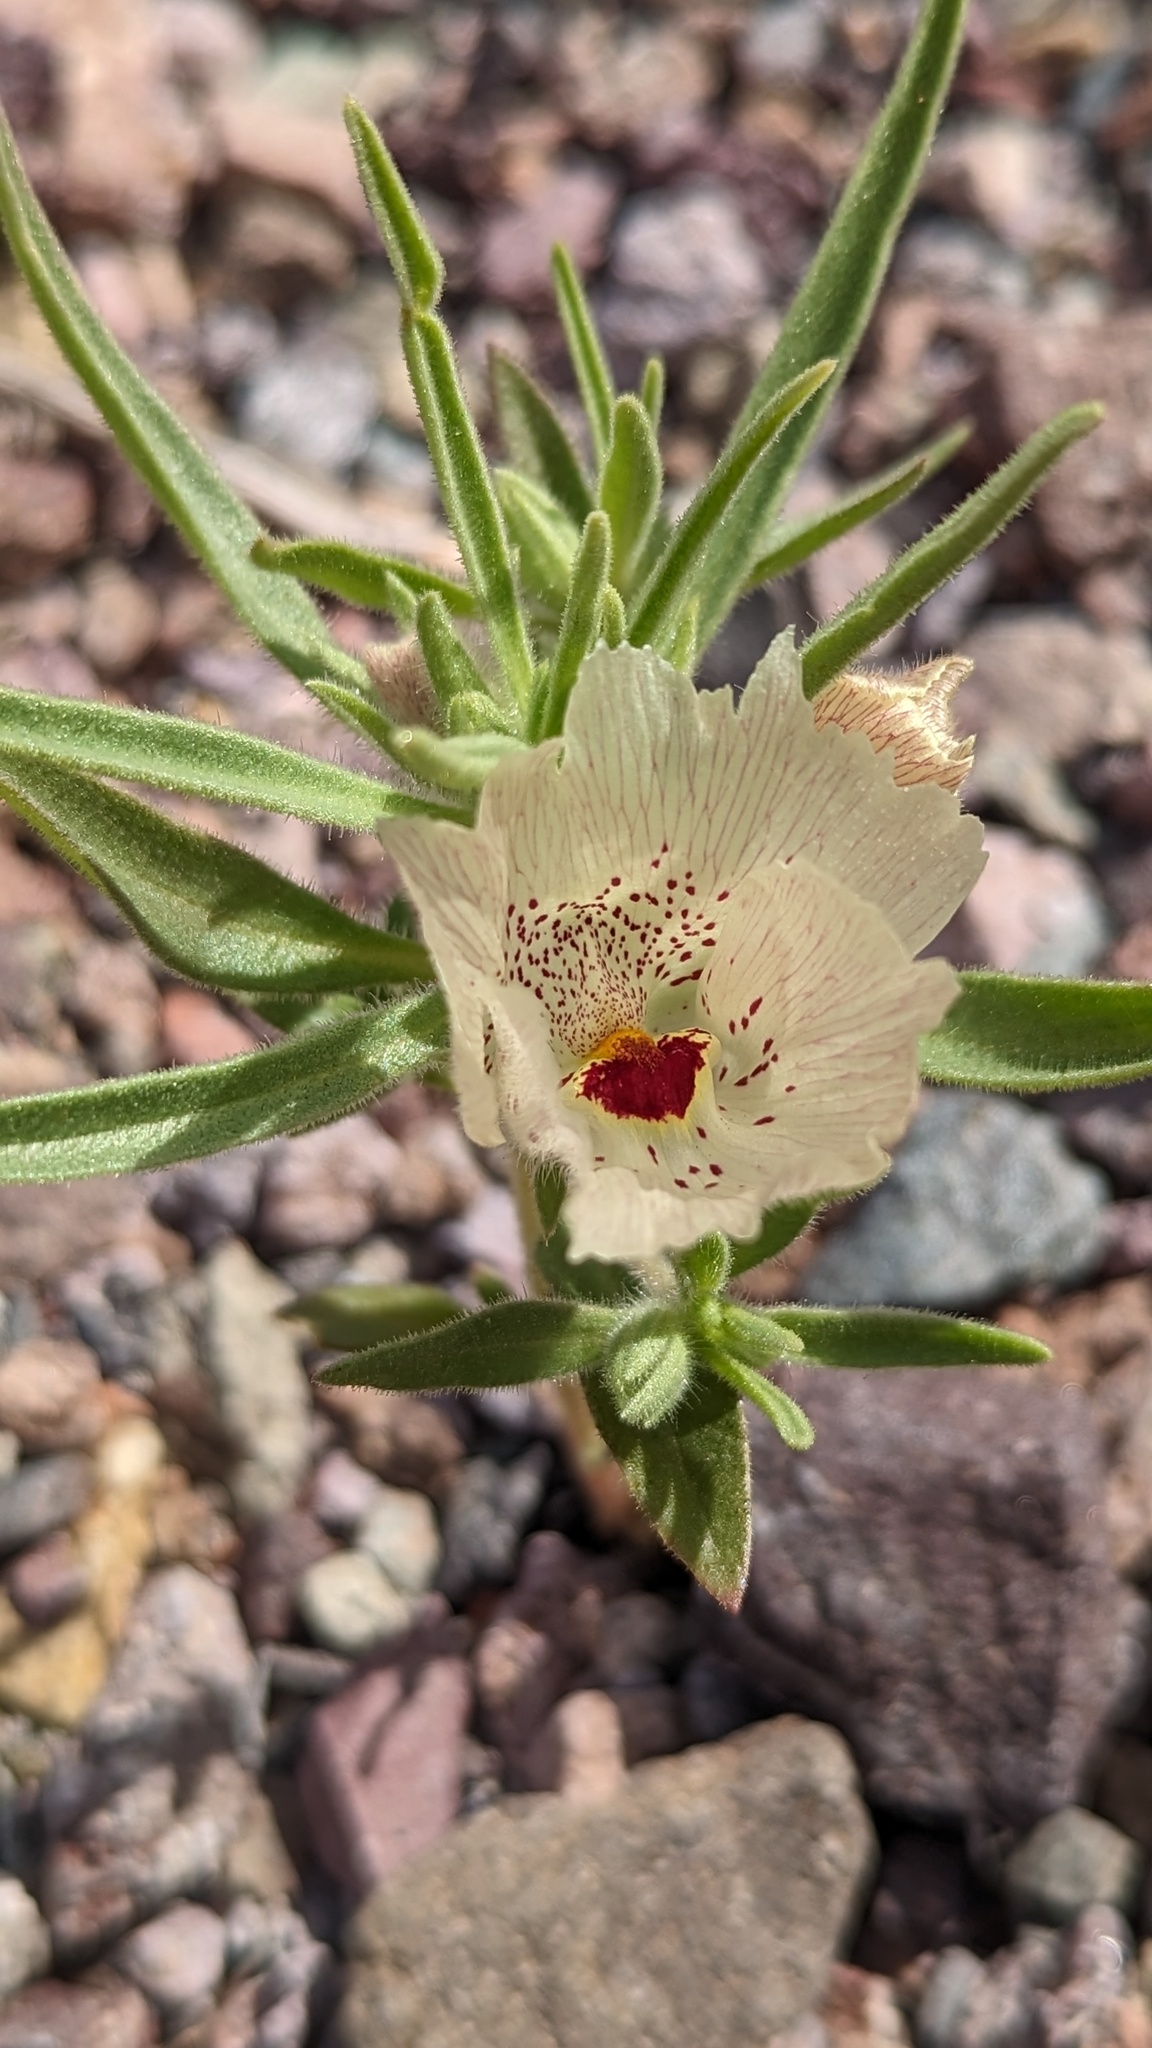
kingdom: Plantae
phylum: Tracheophyta
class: Magnoliopsida
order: Lamiales
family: Plantaginaceae
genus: Mohavea
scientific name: Mohavea confertiflora
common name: Ghost flower
